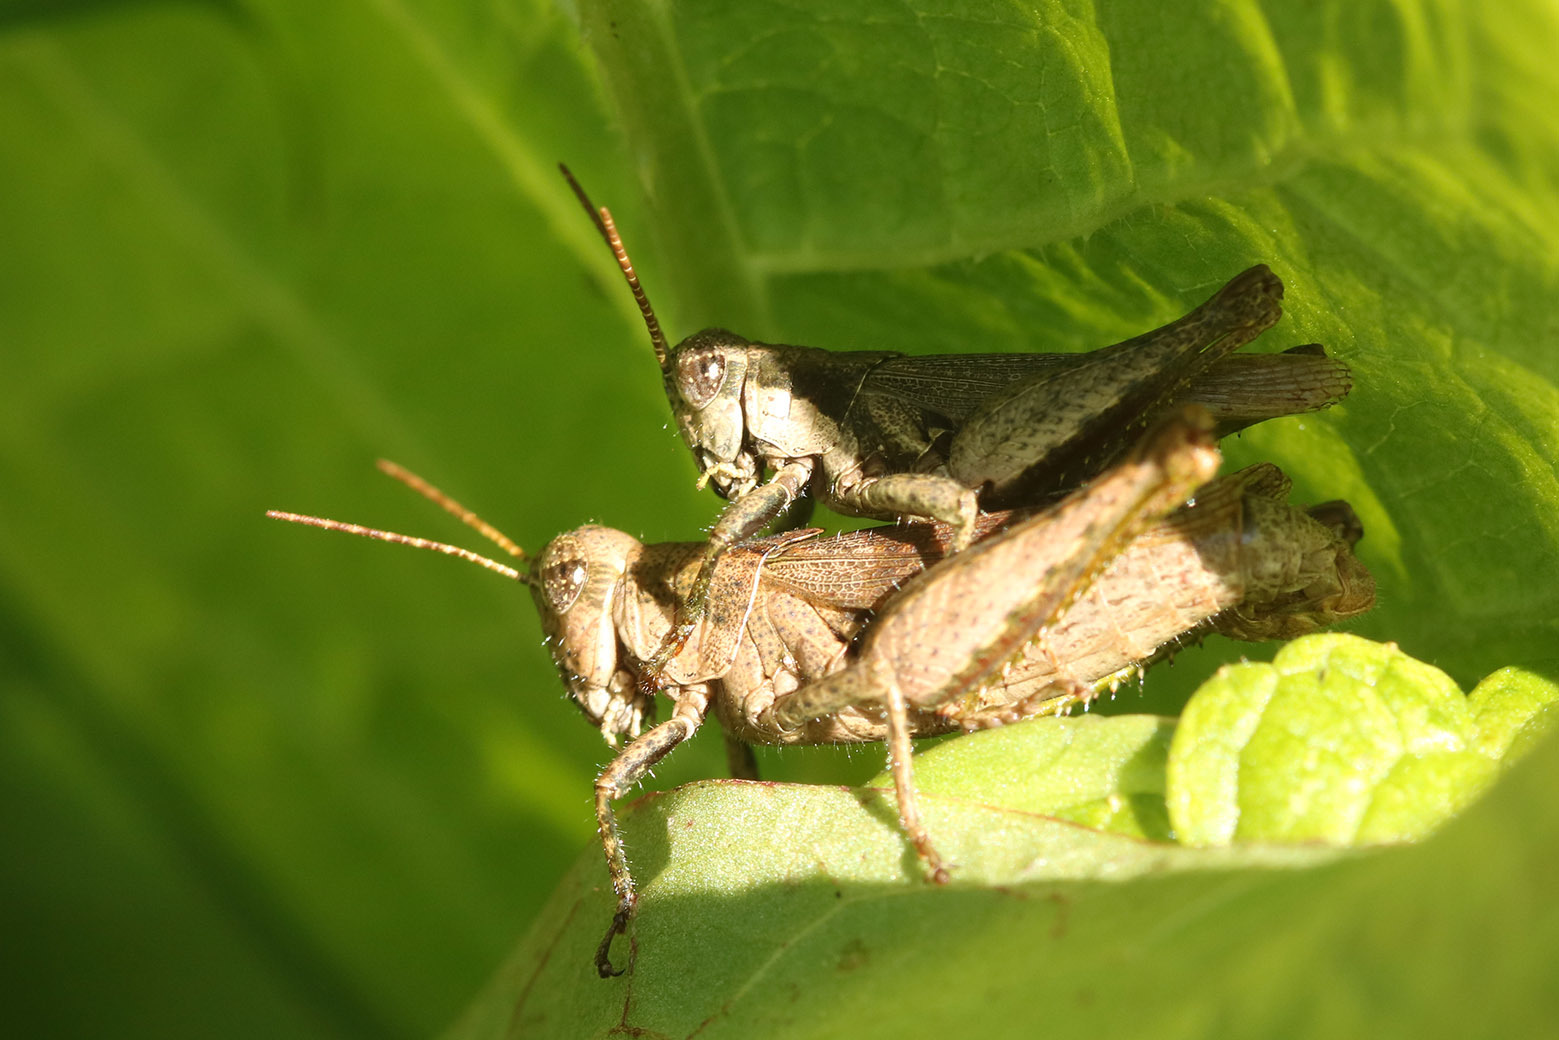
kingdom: Animalia
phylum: Arthropoda
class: Insecta
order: Orthoptera
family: Acrididae
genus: Ronderosia
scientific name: Ronderosia bergii
